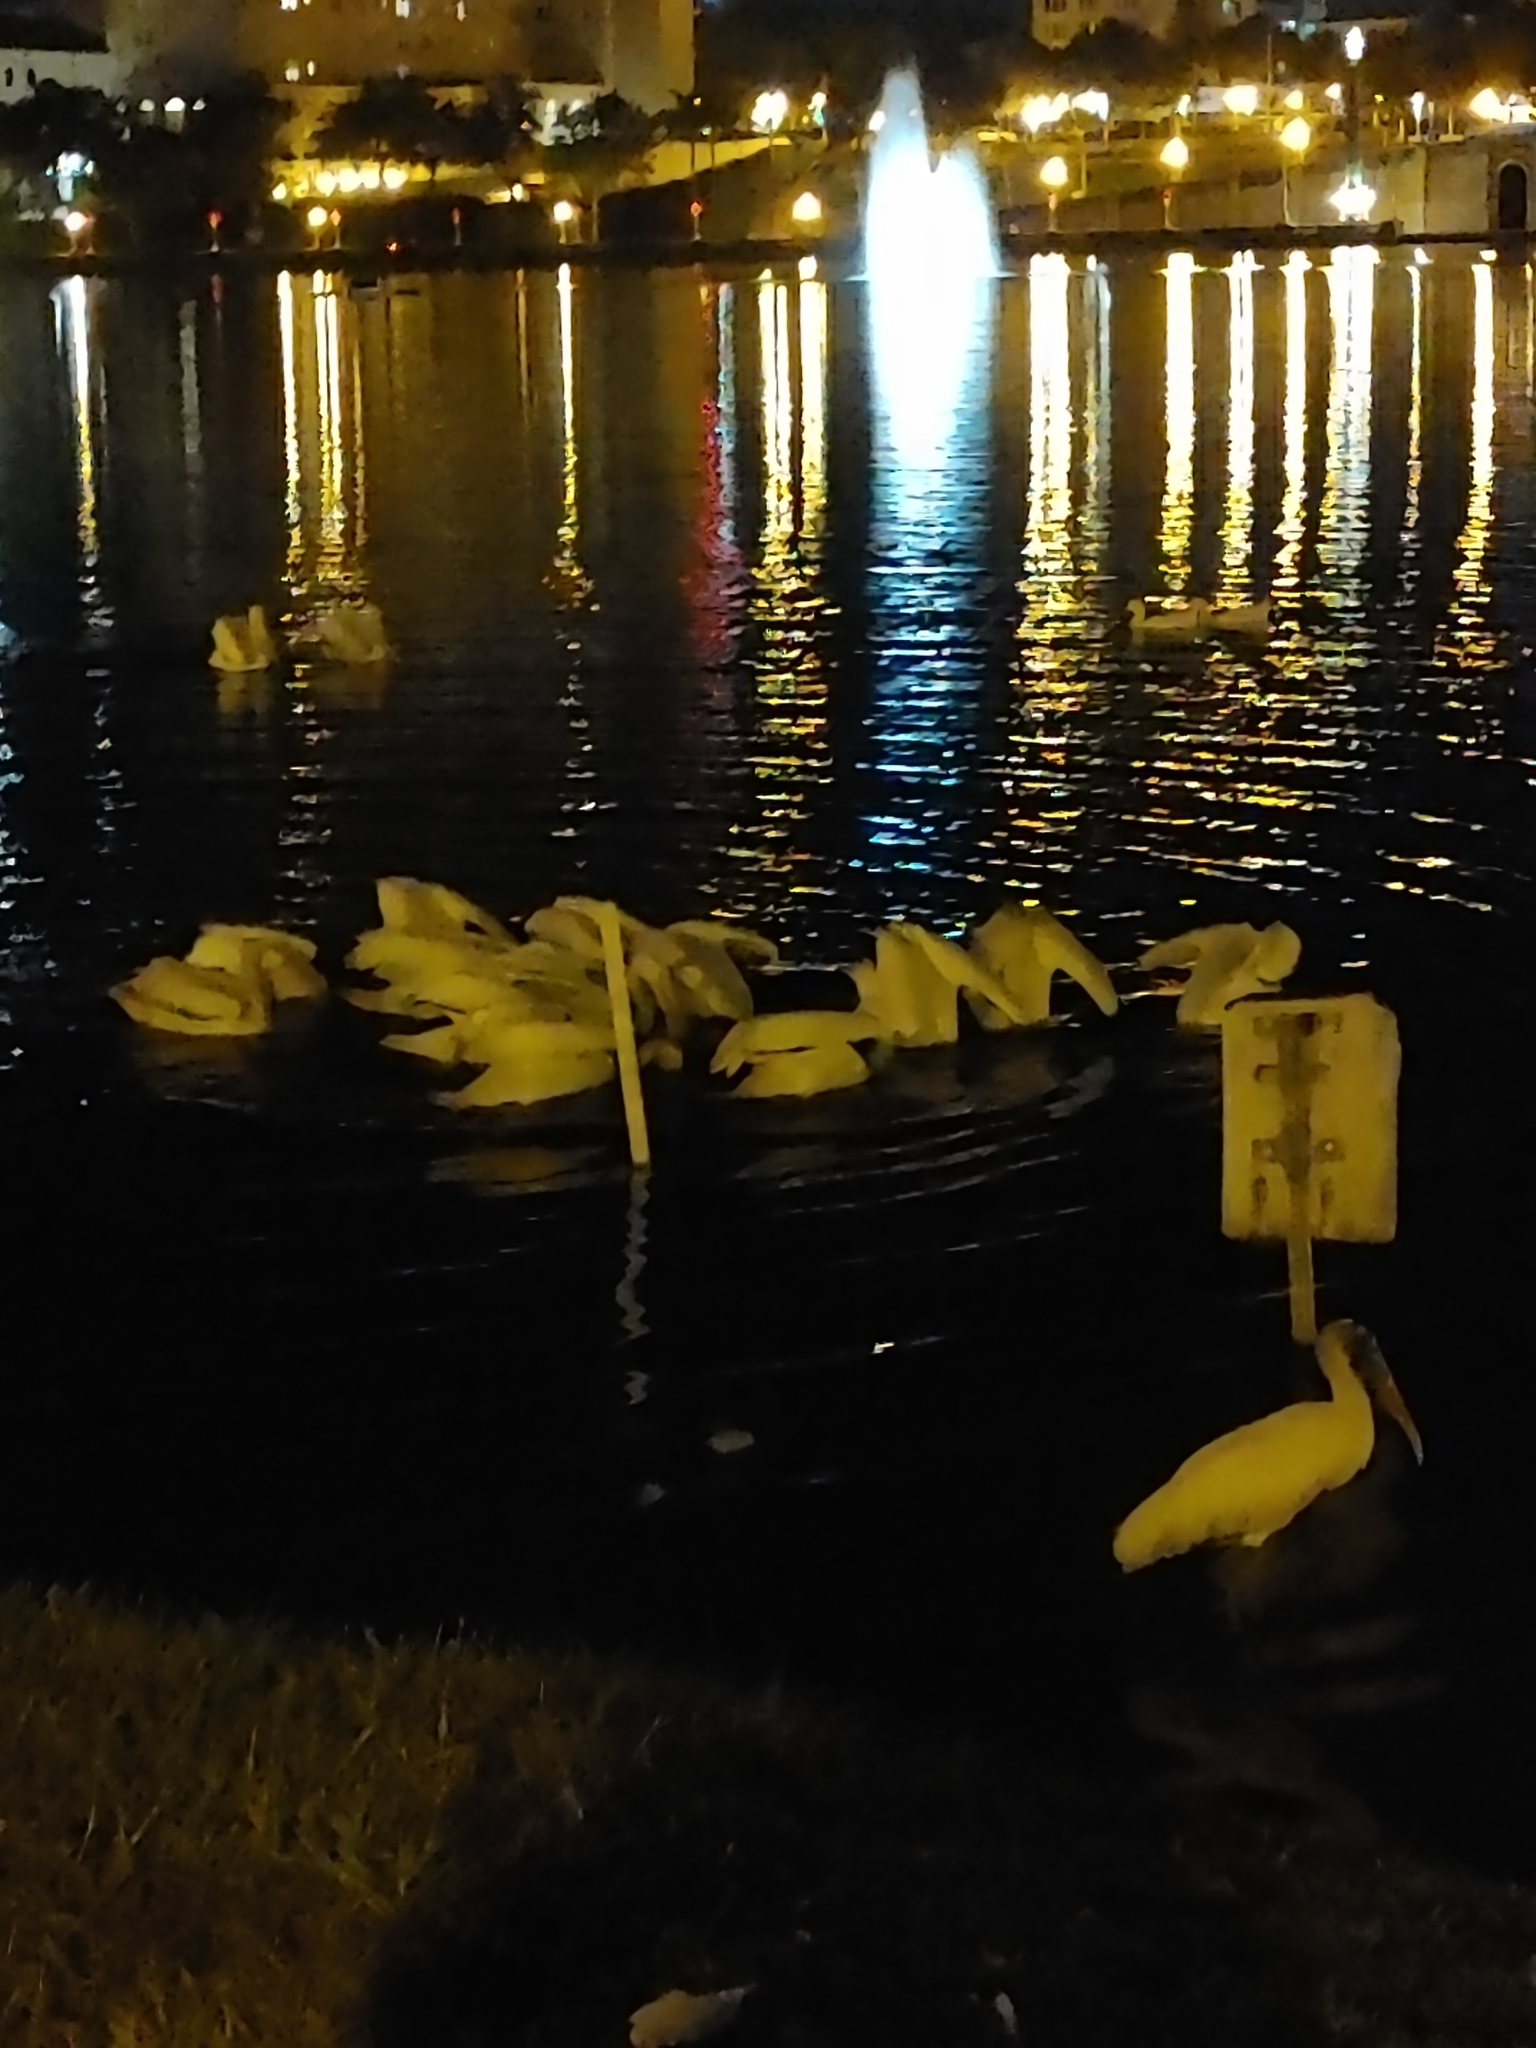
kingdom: Animalia
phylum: Chordata
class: Aves
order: Pelecaniformes
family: Pelecanidae
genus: Pelecanus
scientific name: Pelecanus erythrorhynchos
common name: American white pelican
